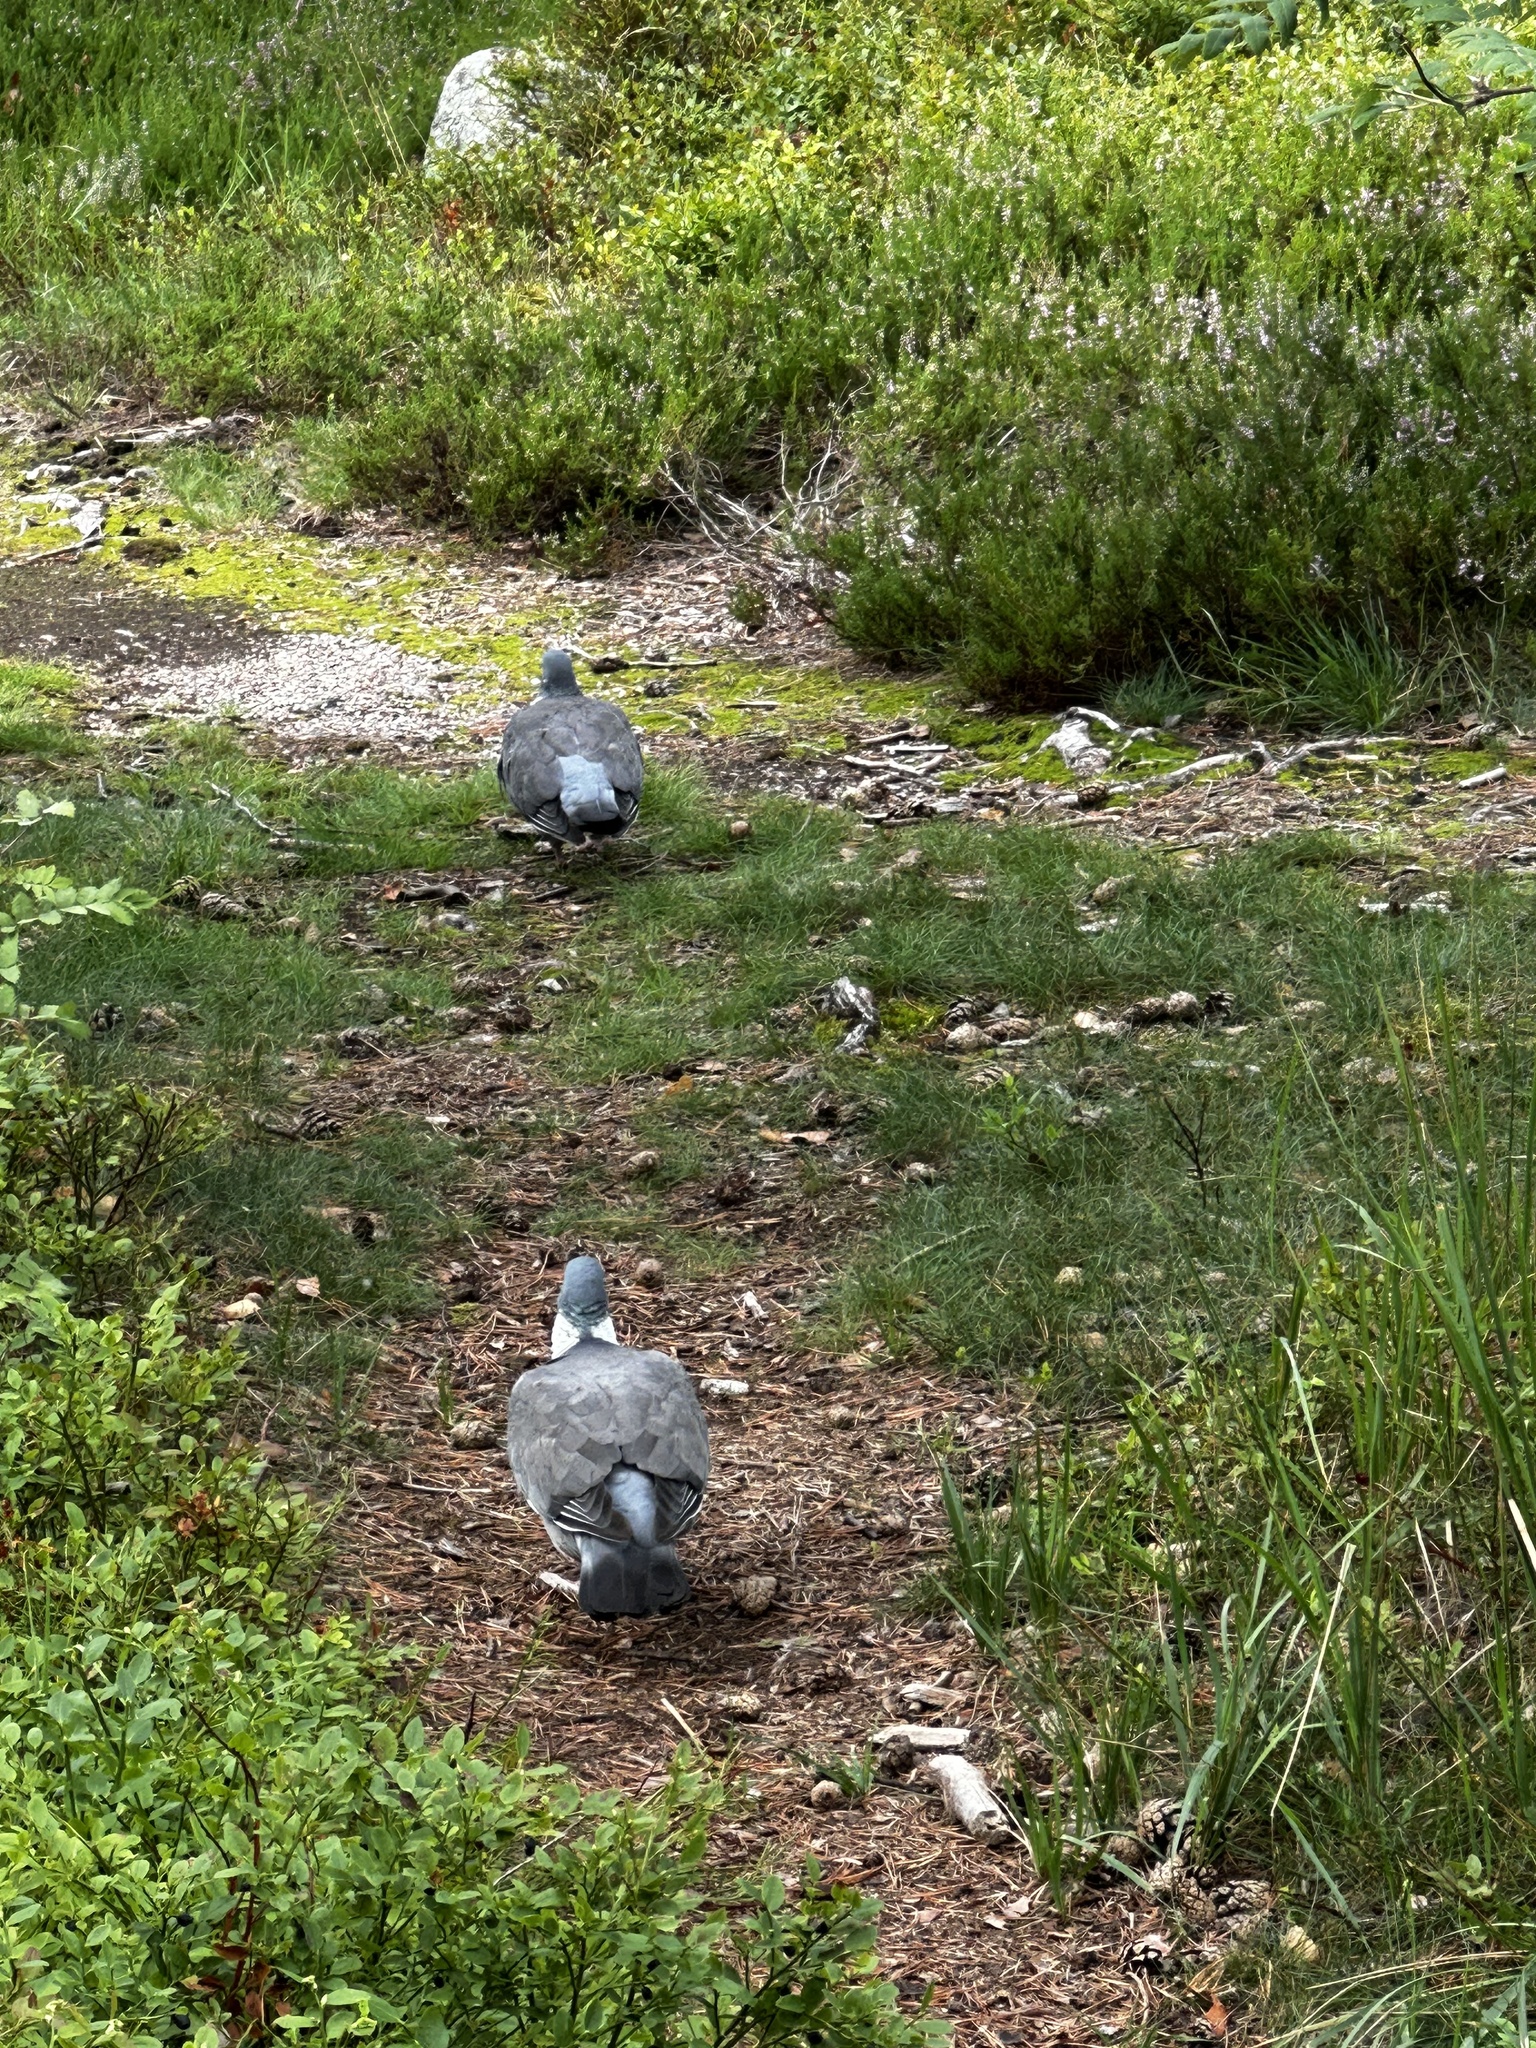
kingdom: Animalia
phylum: Chordata
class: Aves
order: Columbiformes
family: Columbidae
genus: Columba
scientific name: Columba palumbus
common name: Common wood pigeon
